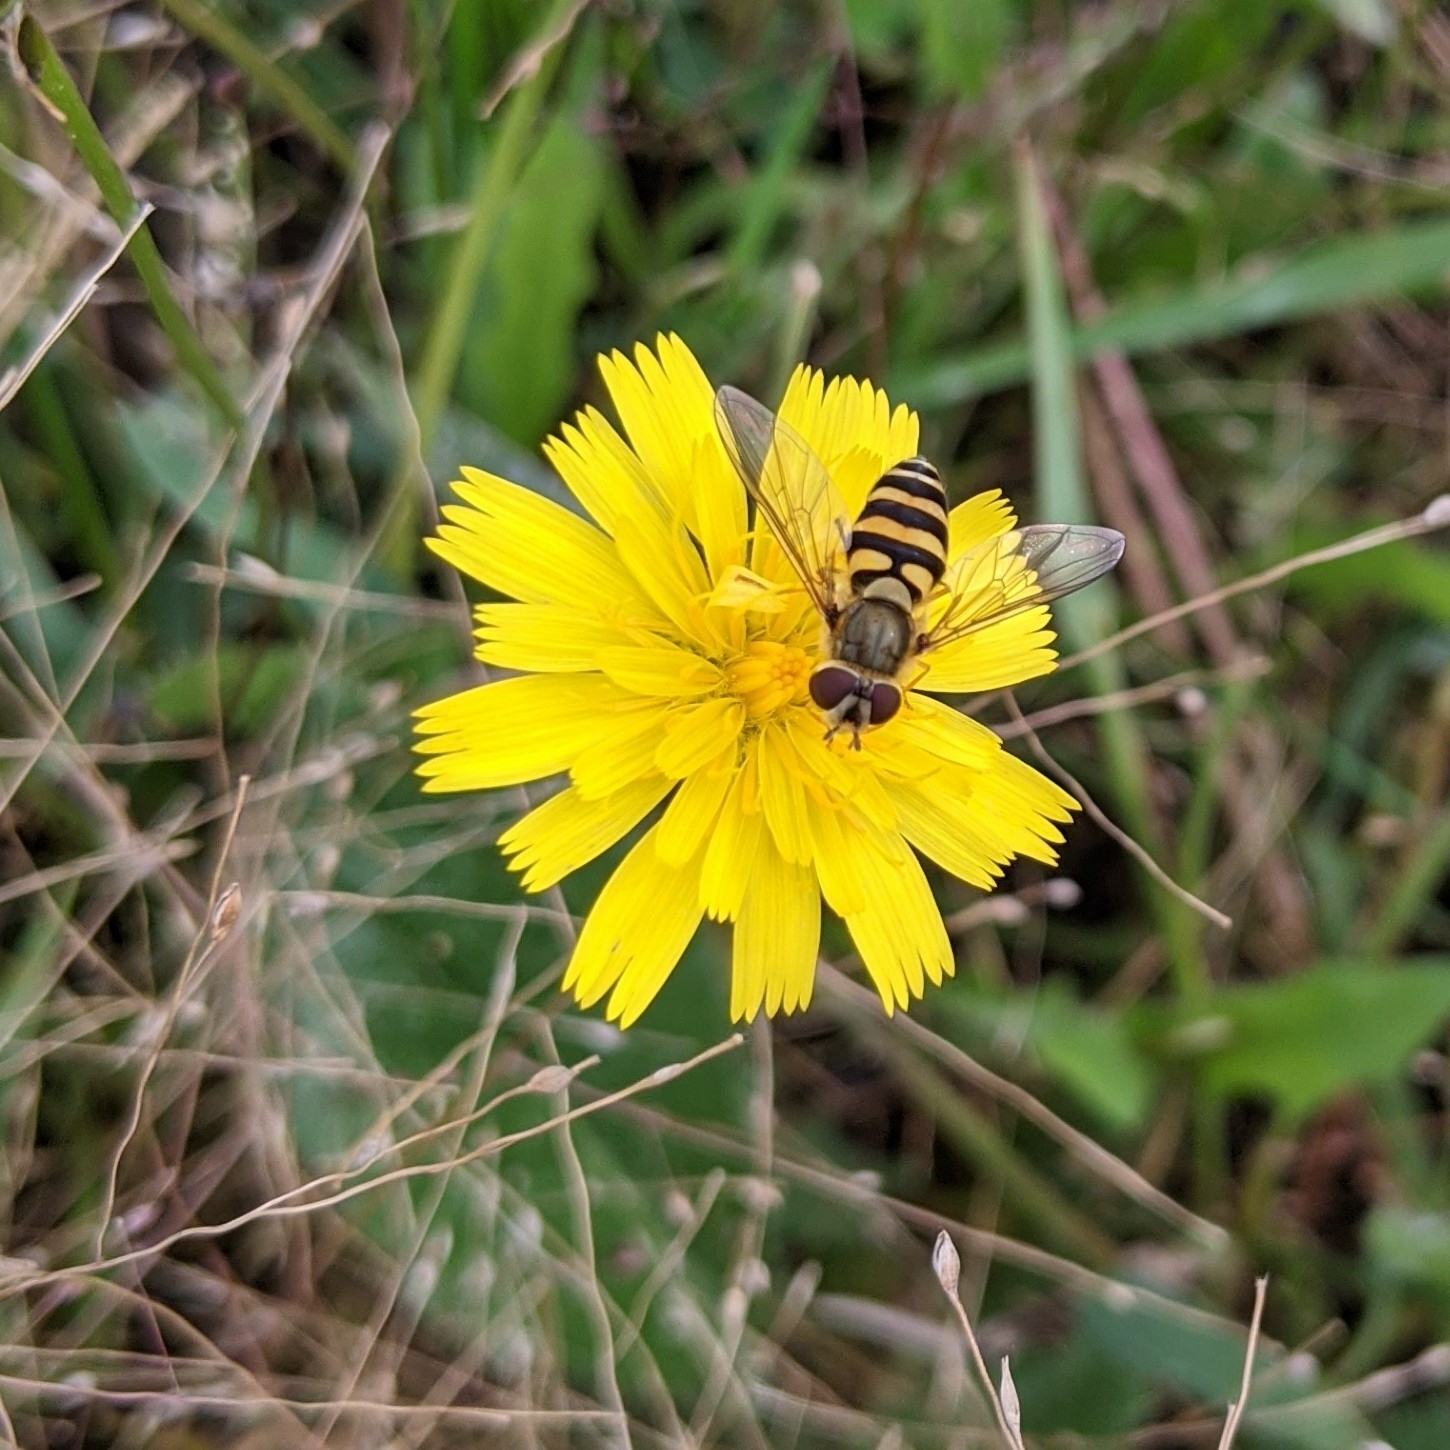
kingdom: Animalia
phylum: Arthropoda
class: Insecta
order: Diptera
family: Syrphidae
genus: Syrphus
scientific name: Syrphus
